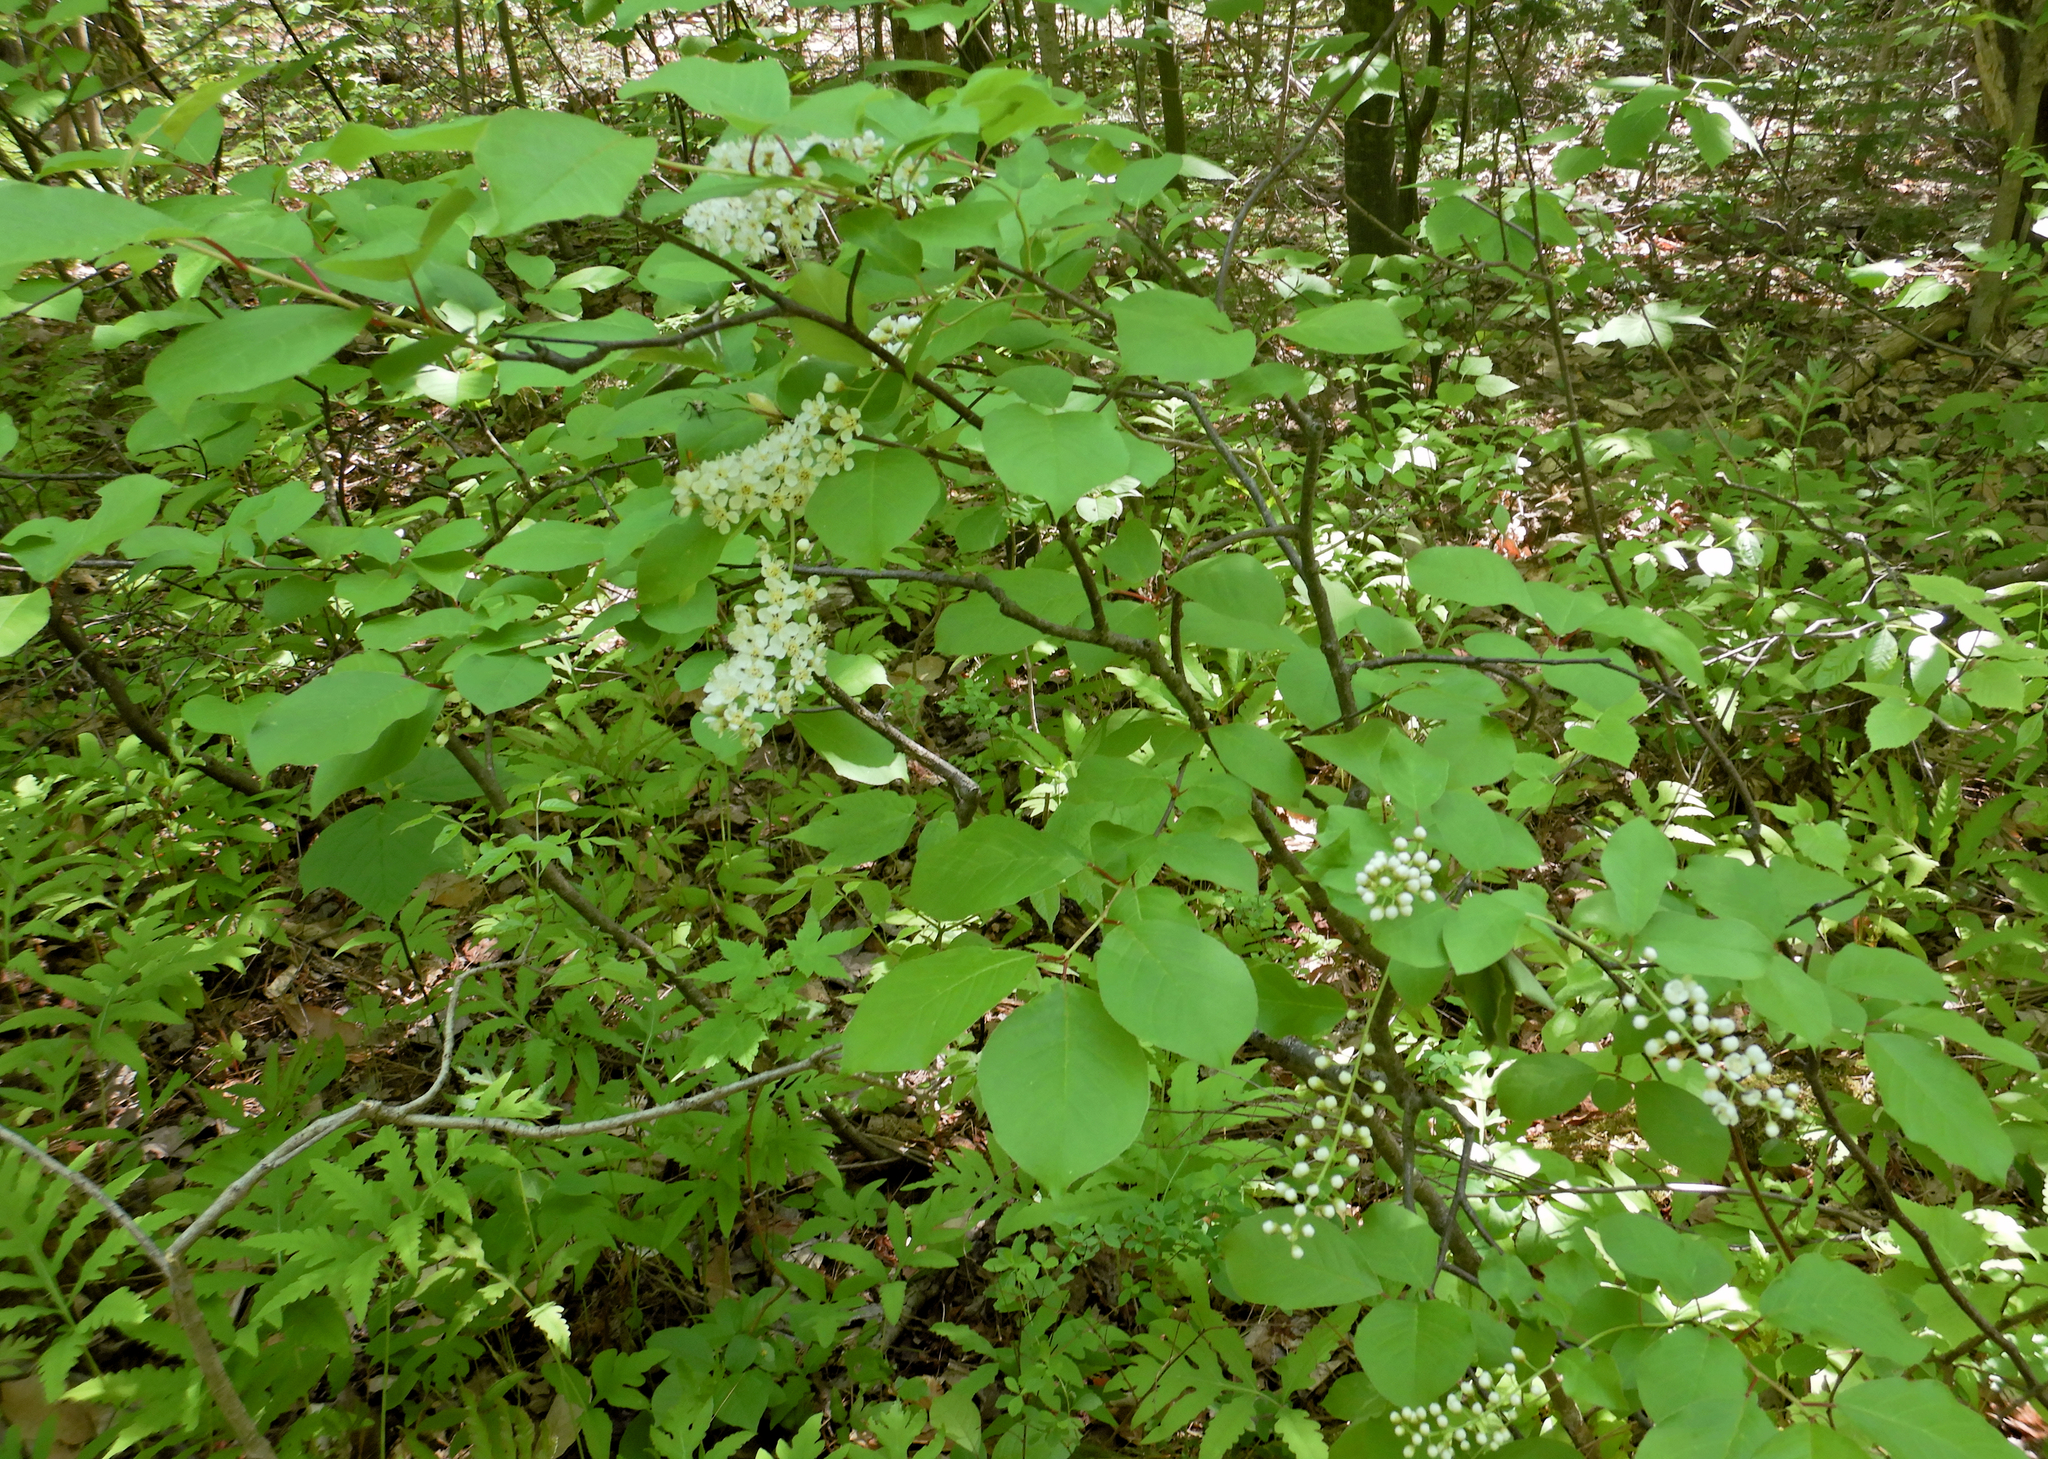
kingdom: Plantae
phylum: Tracheophyta
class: Magnoliopsida
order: Rosales
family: Rosaceae
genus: Prunus
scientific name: Prunus virginiana
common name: Chokecherry
